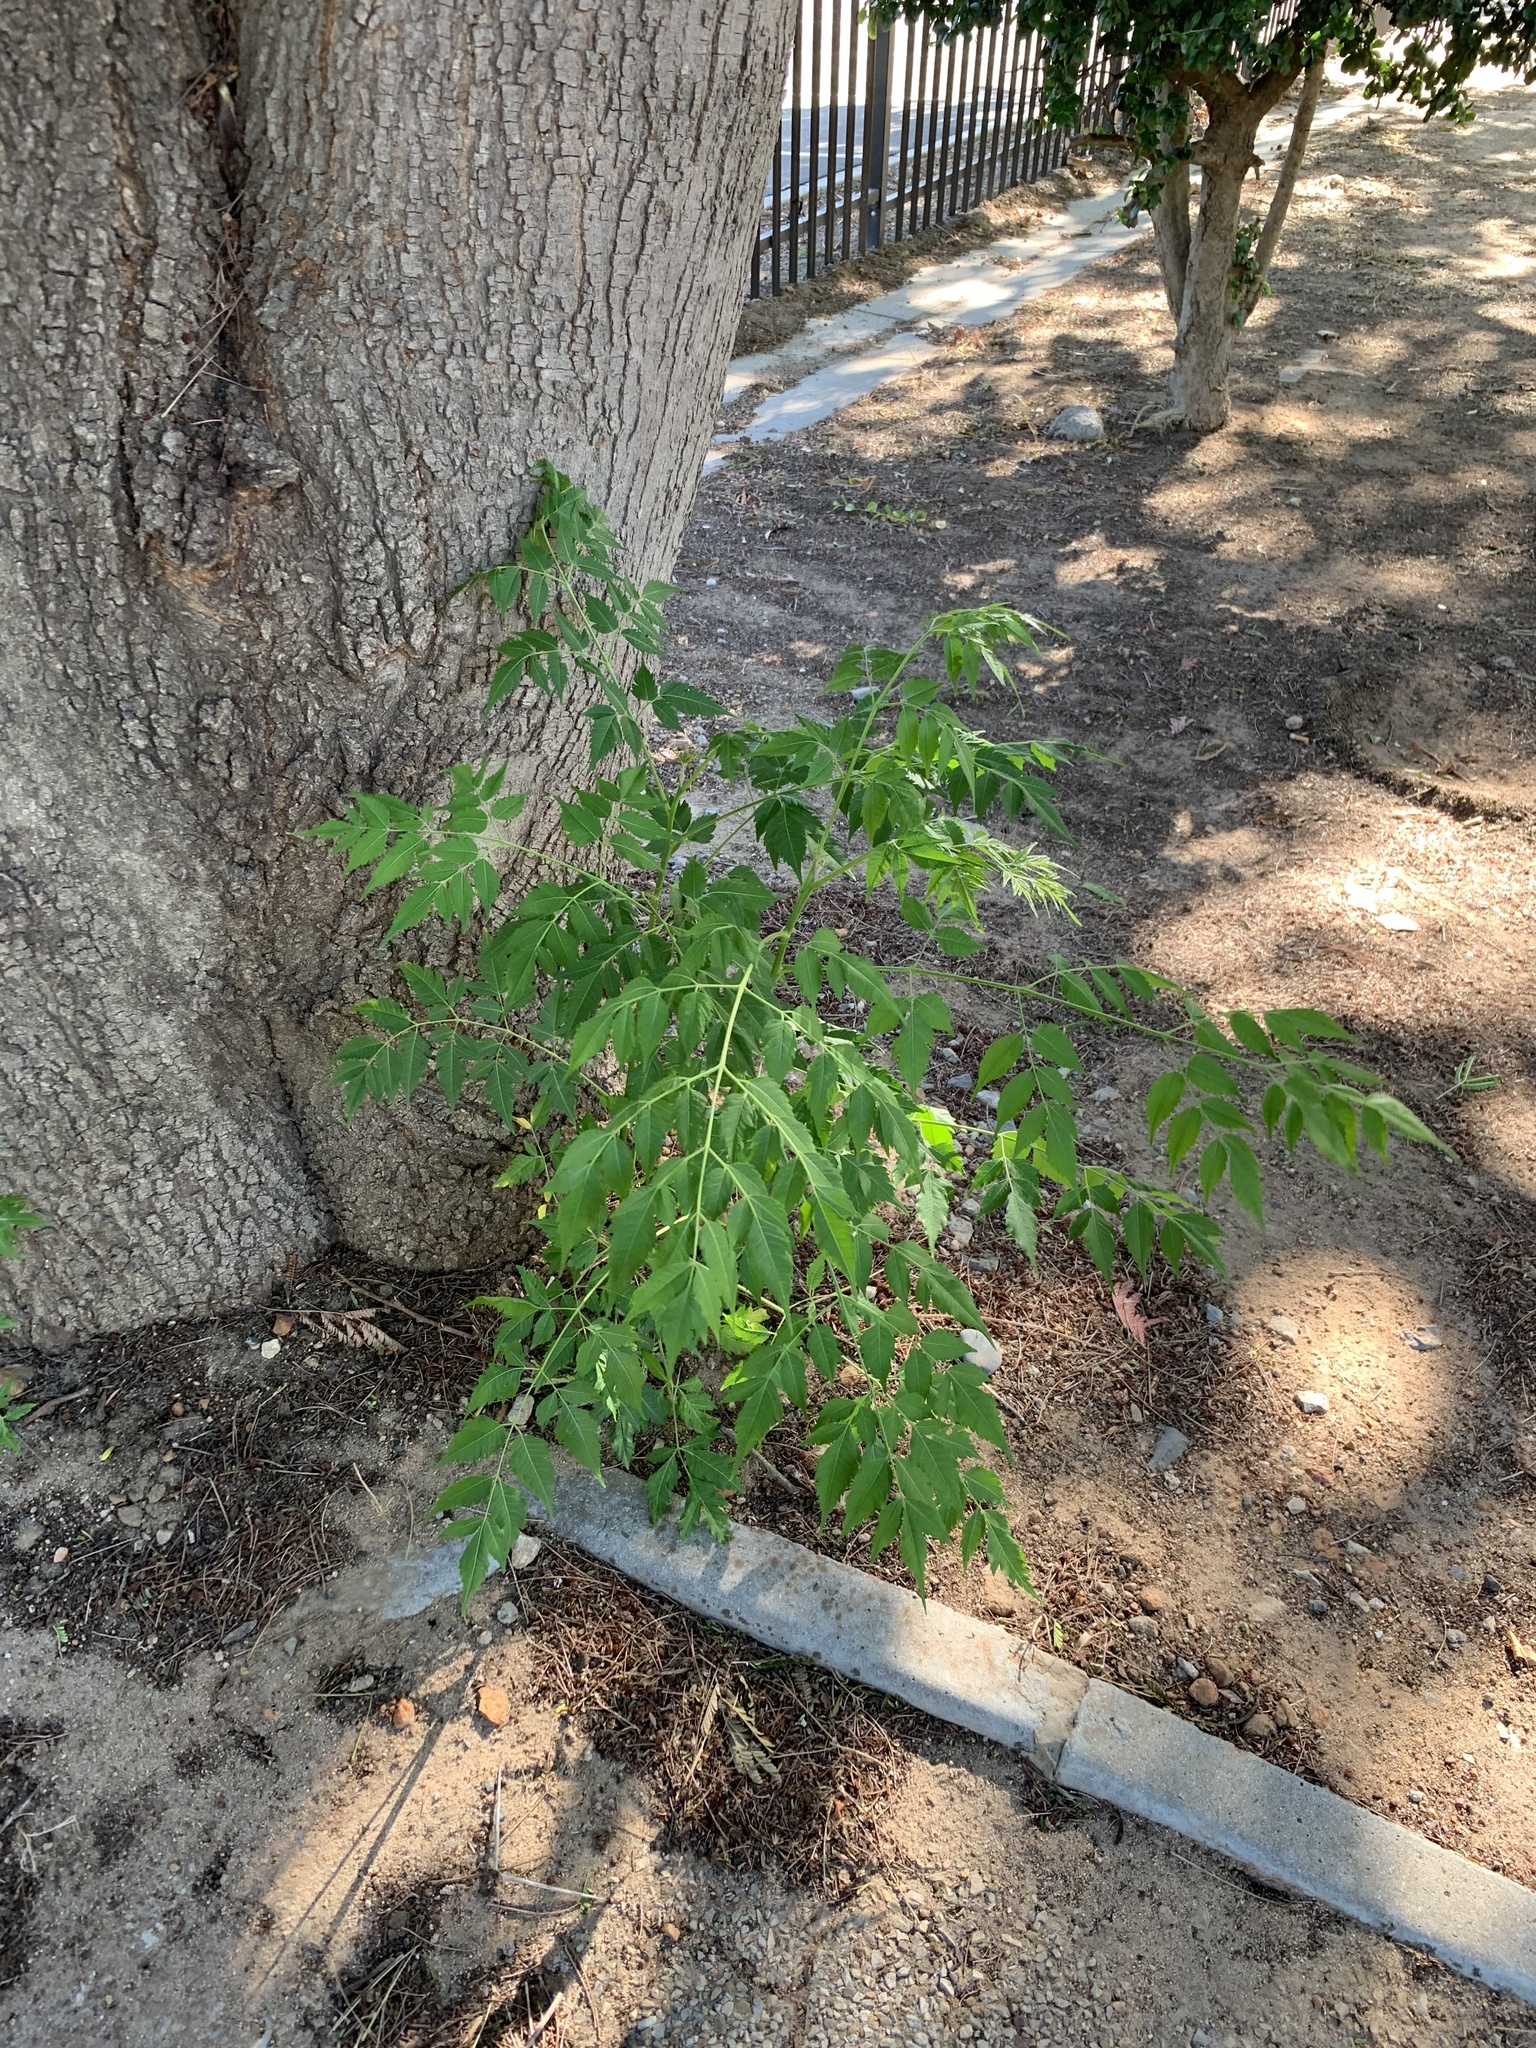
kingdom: Plantae
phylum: Tracheophyta
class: Magnoliopsida
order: Sapindales
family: Meliaceae
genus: Melia
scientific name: Melia azedarach
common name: Chinaberrytree
